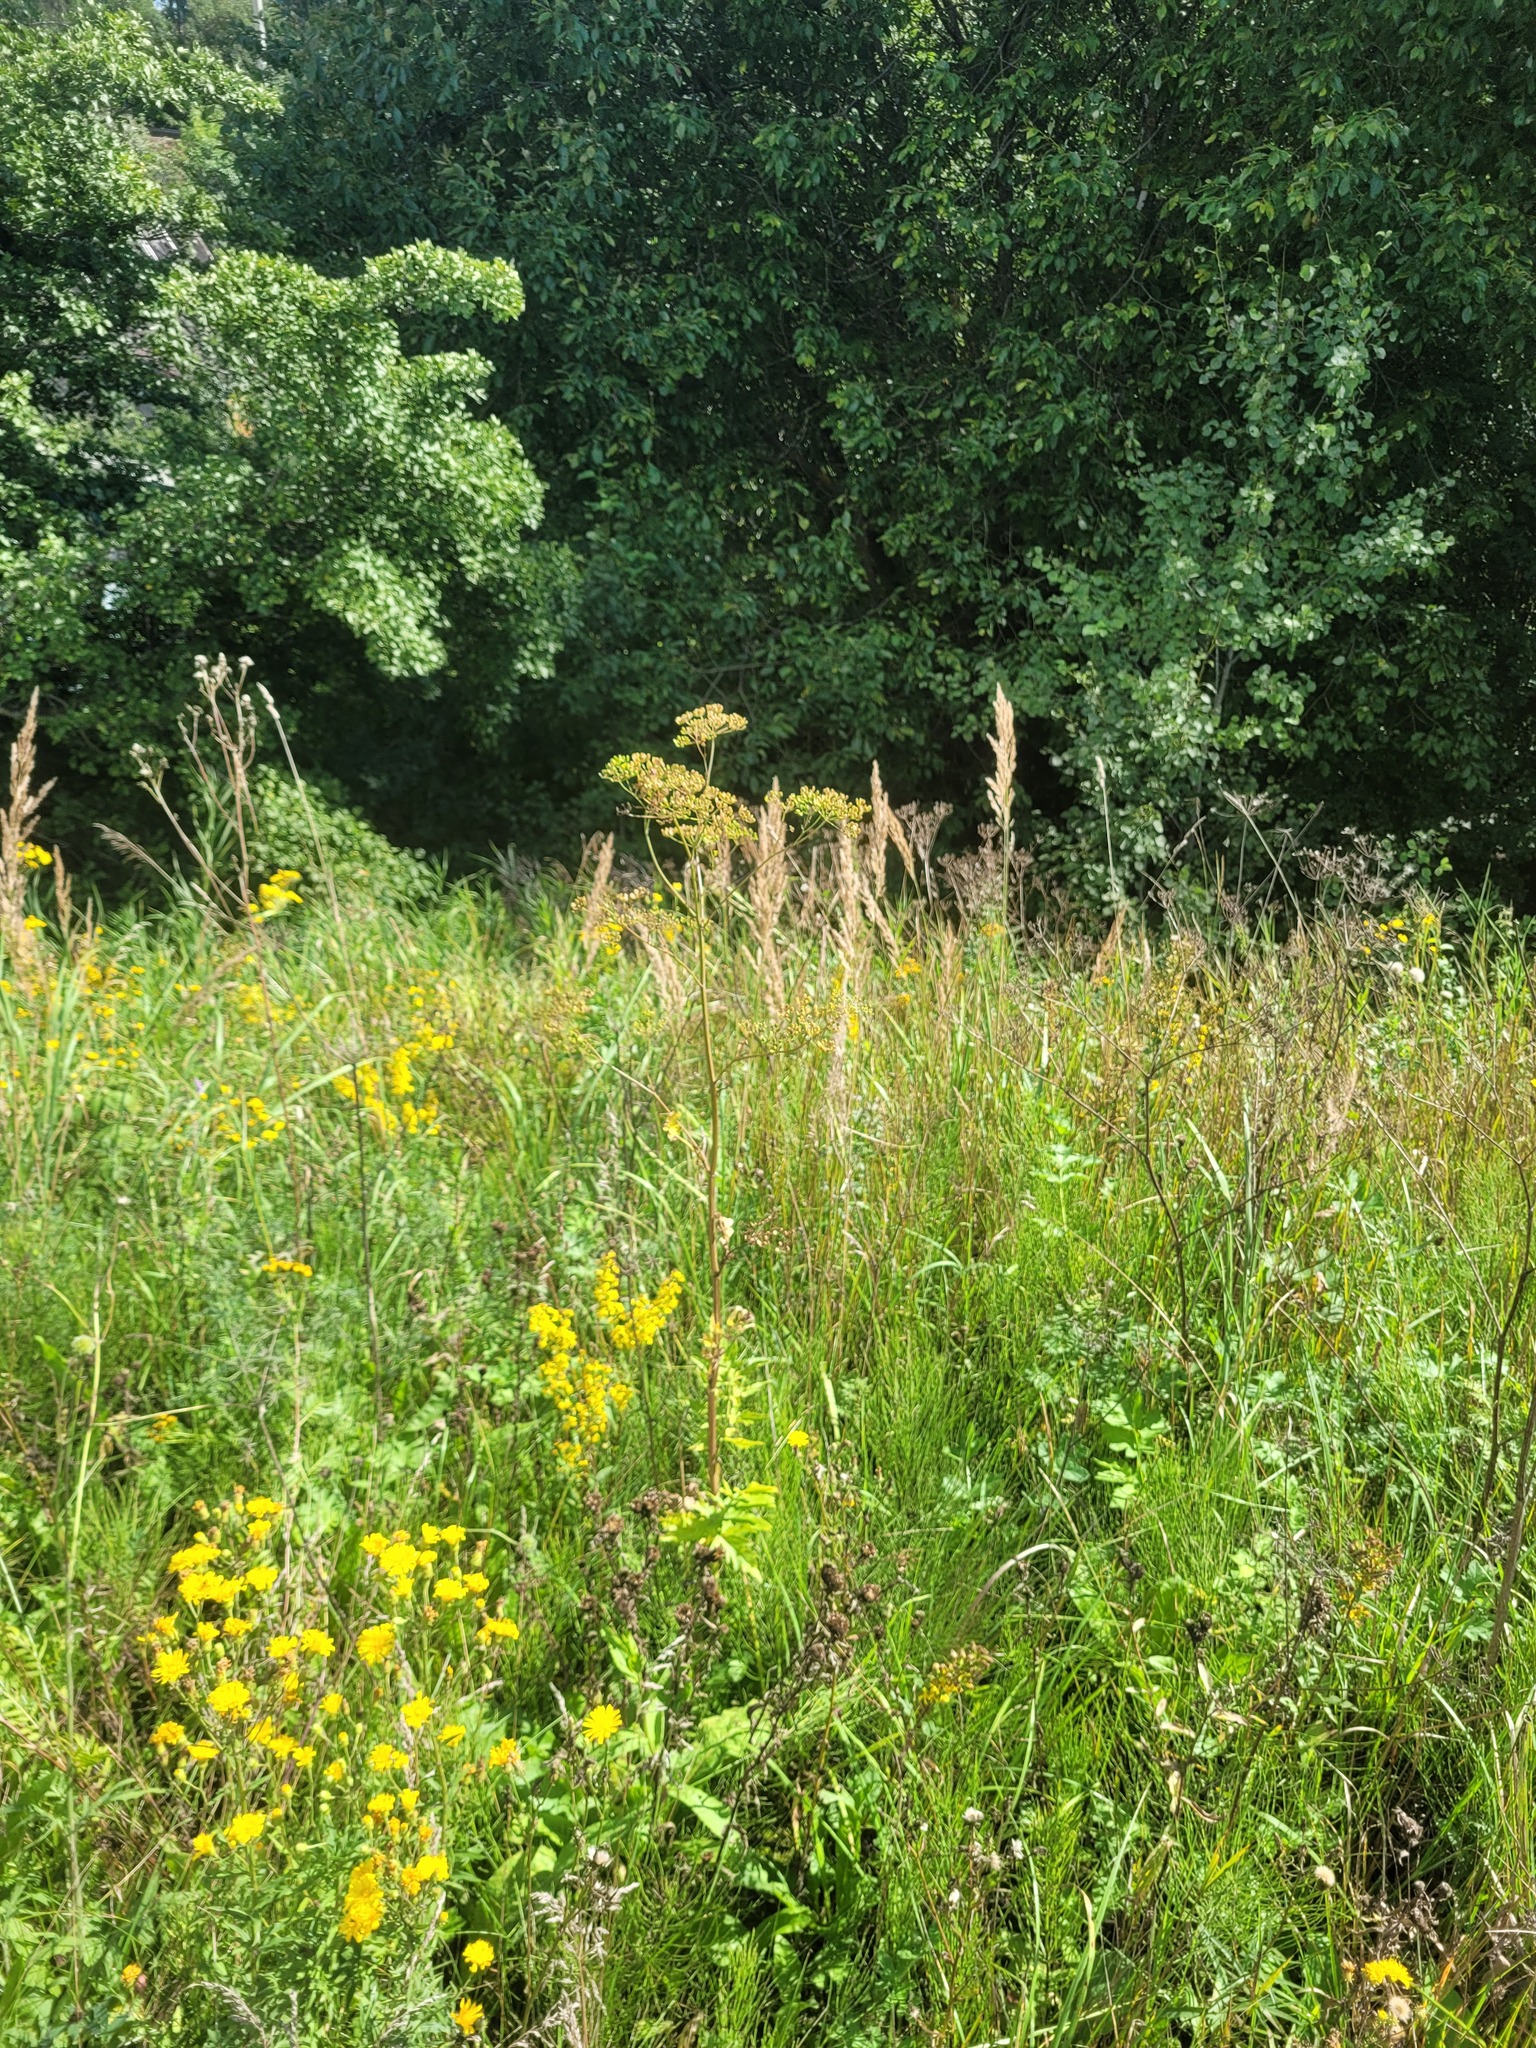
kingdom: Plantae
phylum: Tracheophyta
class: Magnoliopsida
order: Apiales
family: Apiaceae
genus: Pastinaca
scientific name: Pastinaca sativa
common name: Wild parsnip
